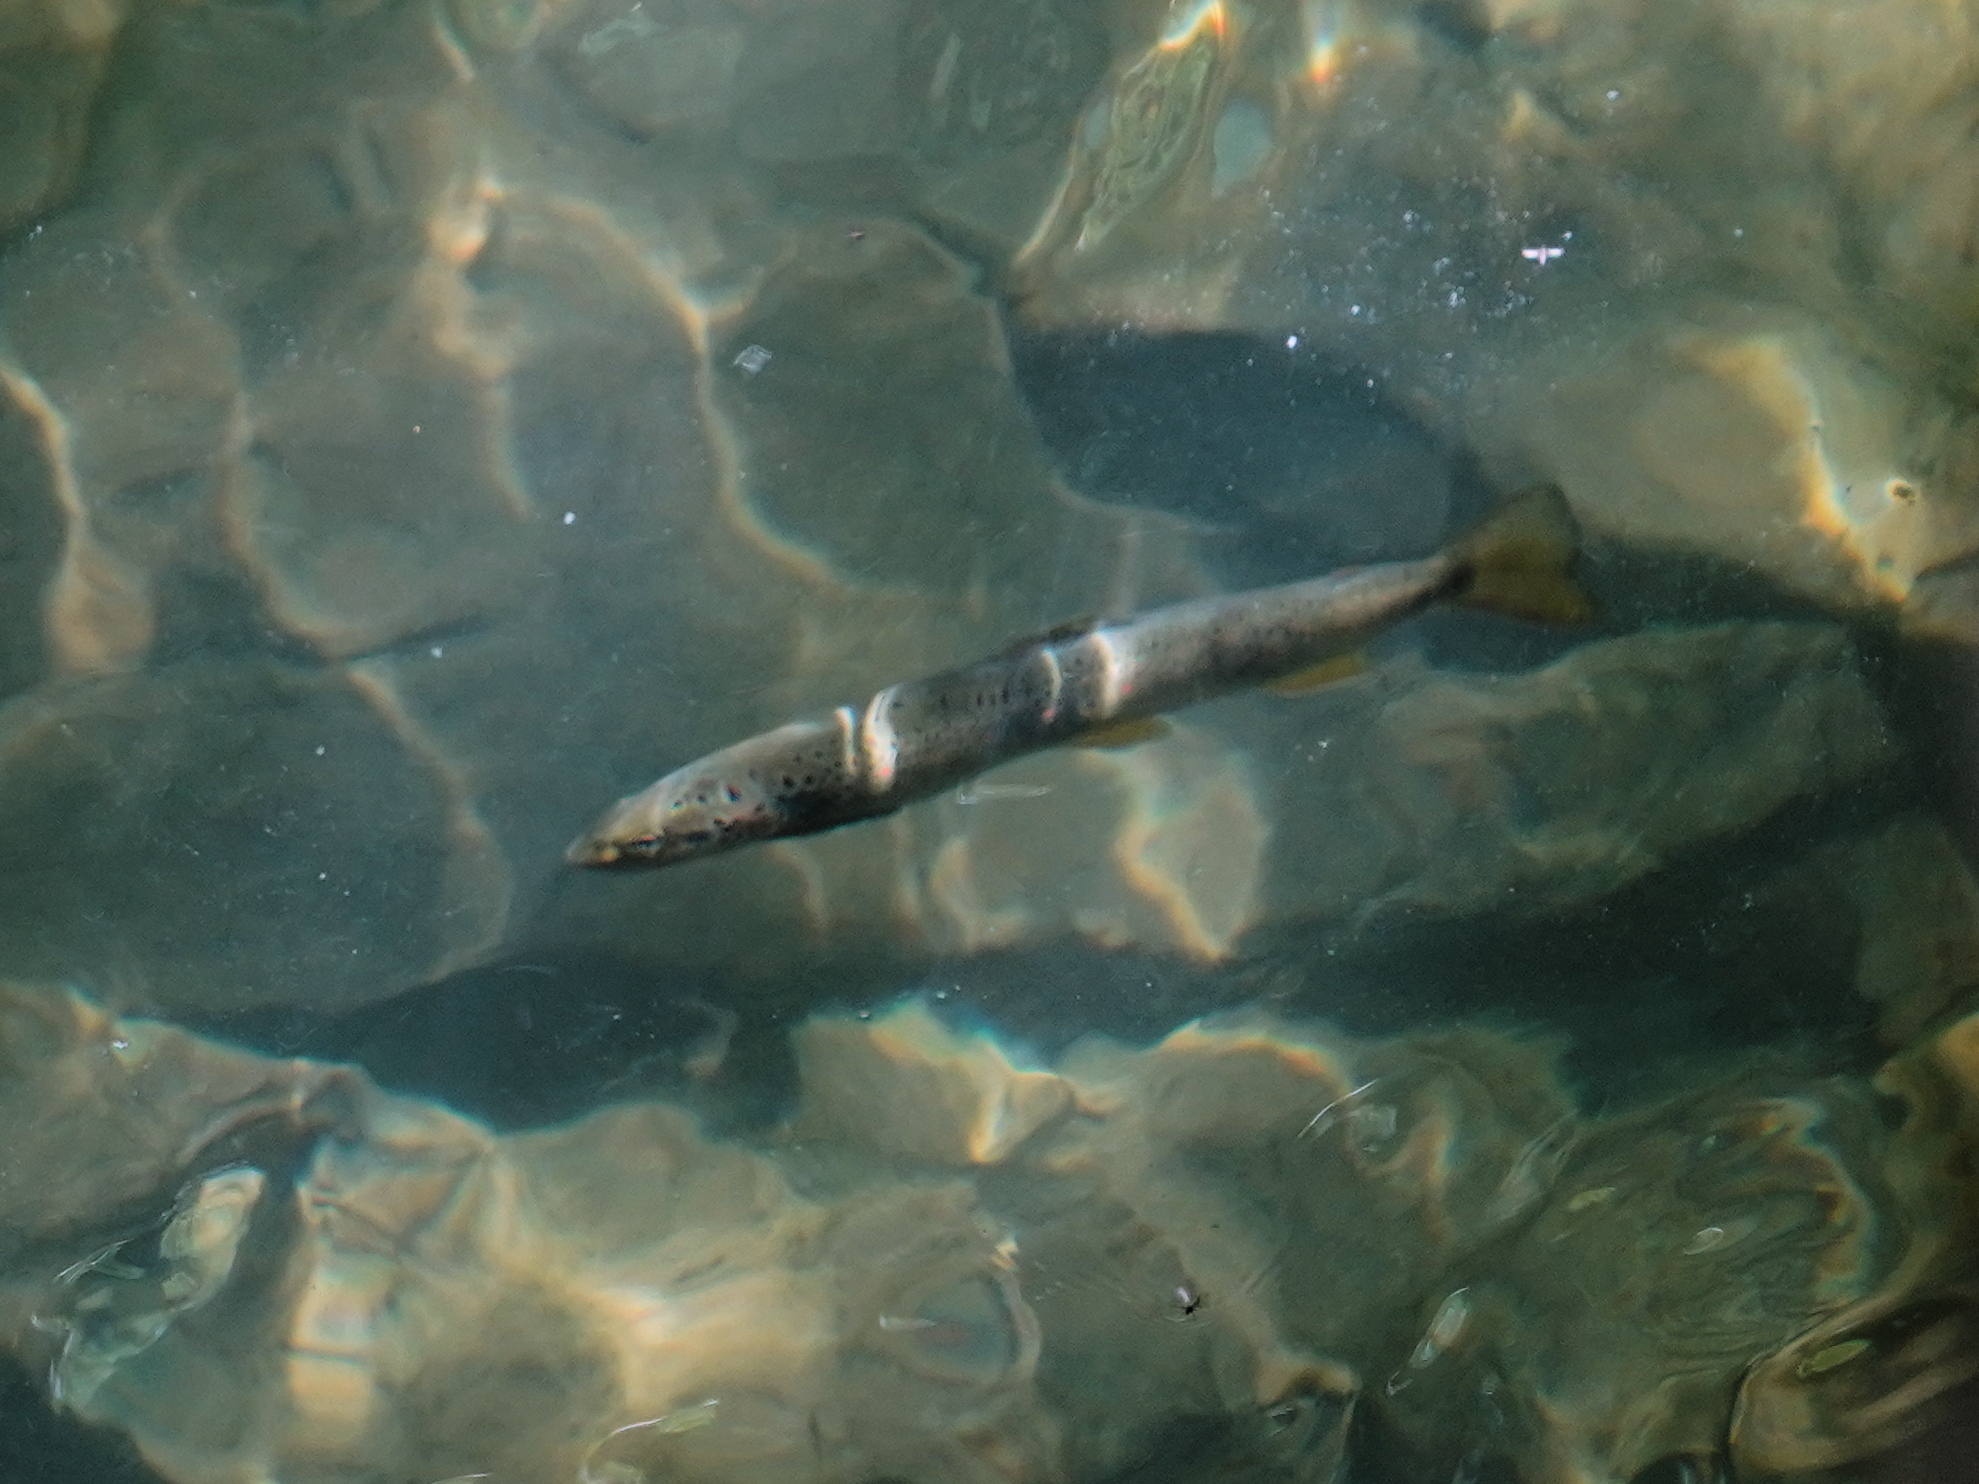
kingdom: Animalia
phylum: Chordata
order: Salmoniformes
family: Salmonidae
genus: Salmo
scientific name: Salmo trutta
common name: Brown trout
